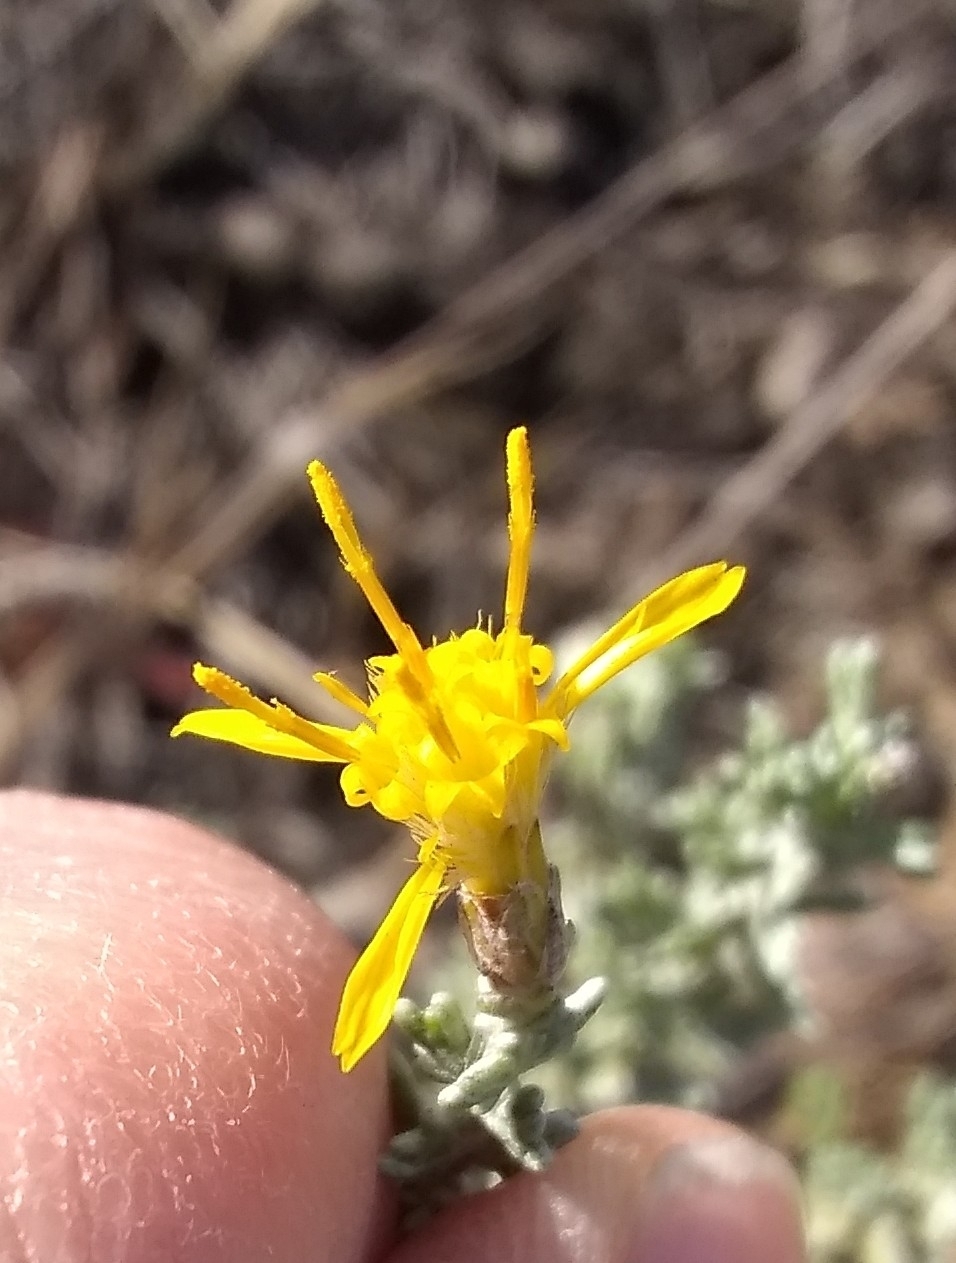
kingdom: Plantae
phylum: Tracheophyta
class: Magnoliopsida
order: Asterales
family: Asteraceae
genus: Ericameria
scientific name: Ericameria ericoides
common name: California goldenbush
